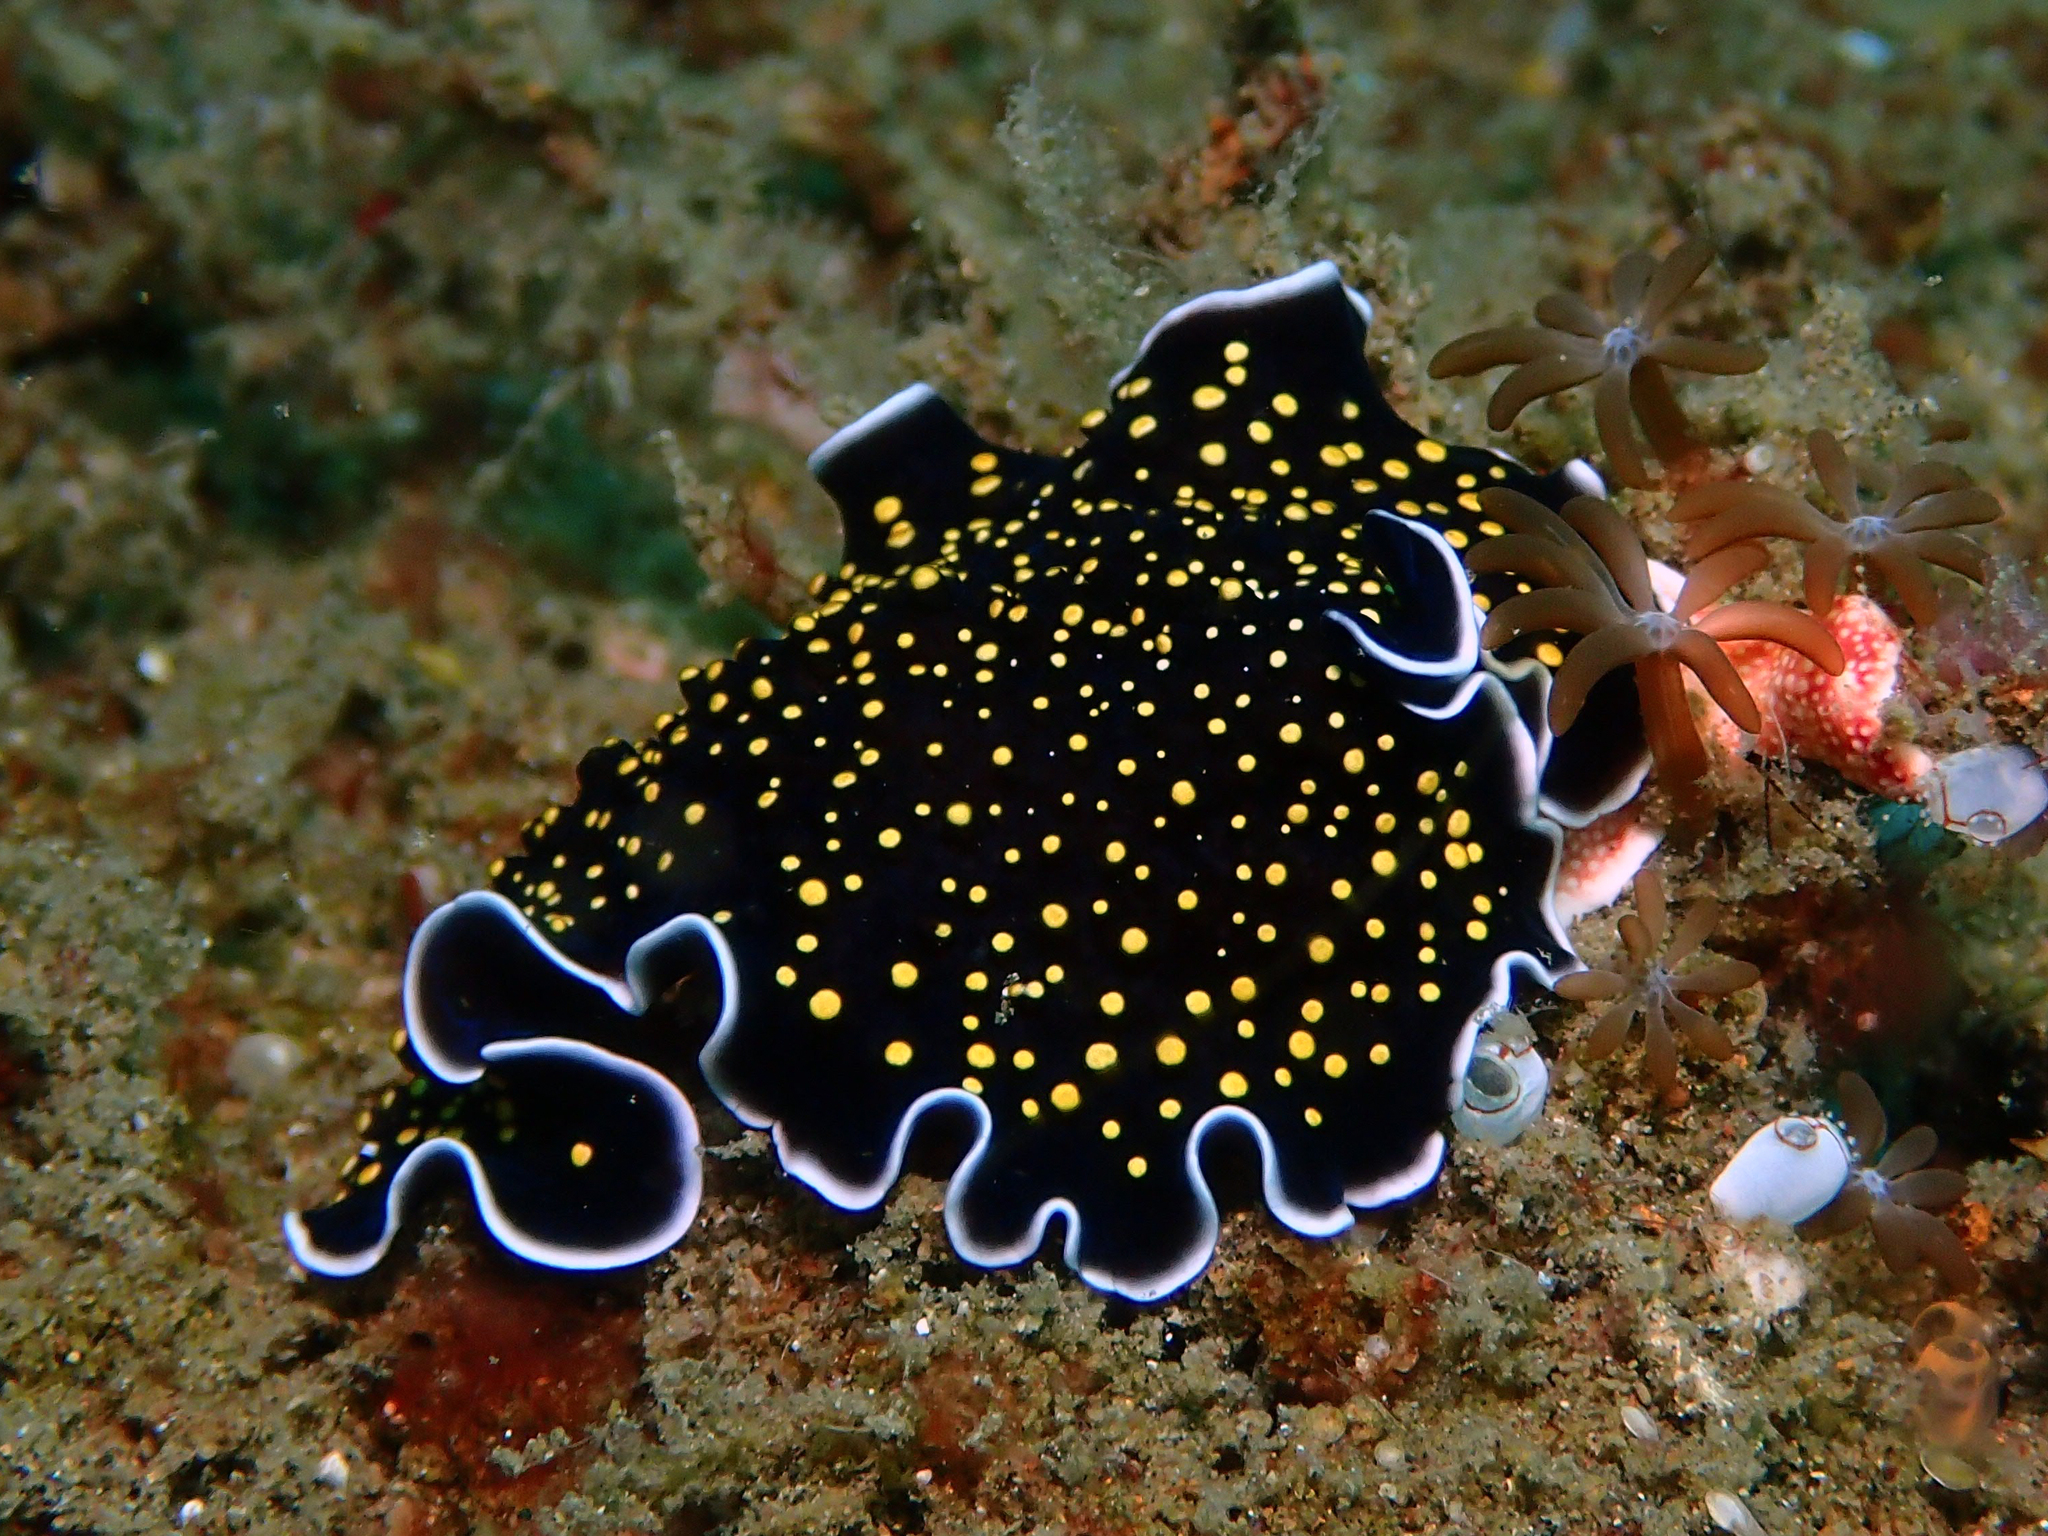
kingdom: Animalia
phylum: Platyhelminthes
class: Turbellaria
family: Pseudocerotidae
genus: Thysanozoon
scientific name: Thysanozoon nigropapillosum
